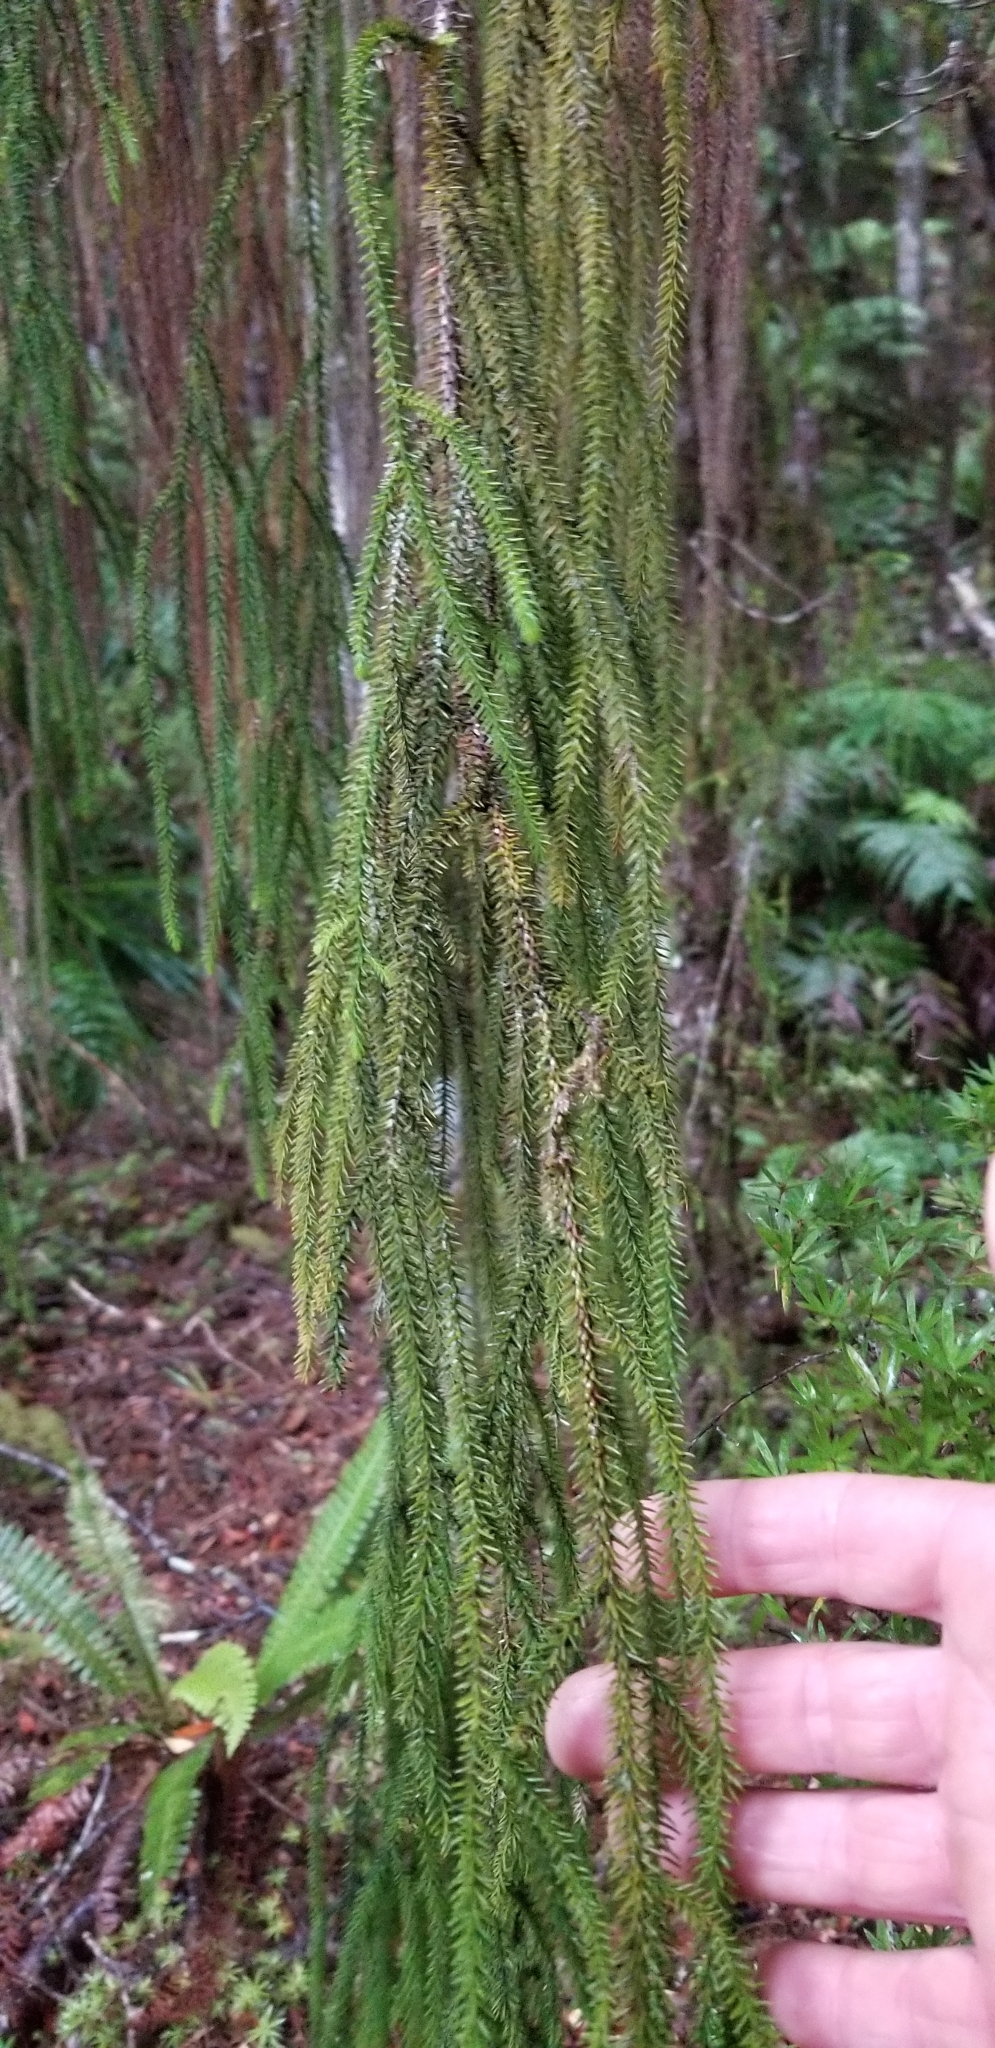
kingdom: Plantae
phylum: Tracheophyta
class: Pinopsida
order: Pinales
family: Podocarpaceae
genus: Dacrydium
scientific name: Dacrydium cupressinum
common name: Red pine
